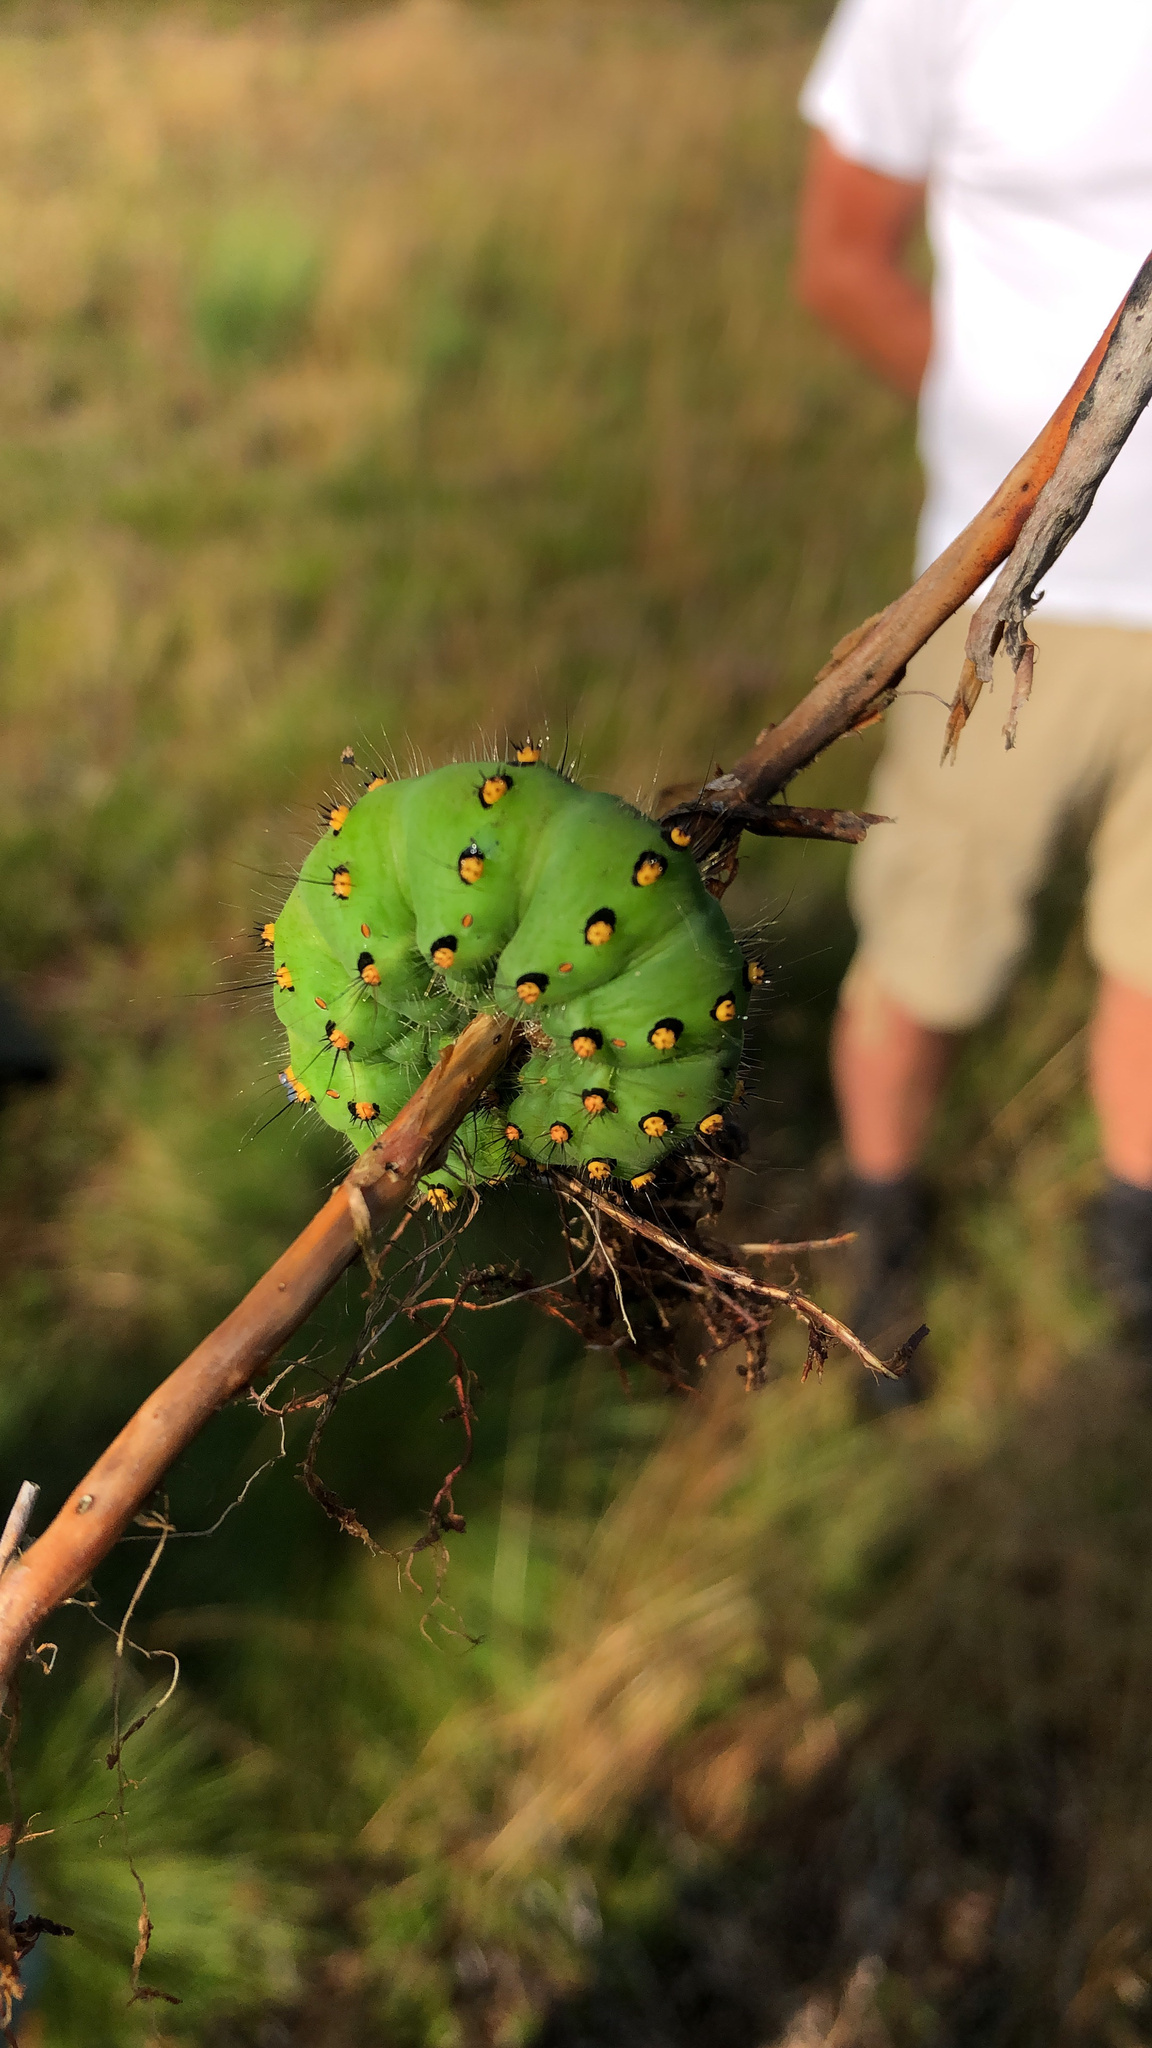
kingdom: Animalia
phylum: Arthropoda
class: Insecta
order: Lepidoptera
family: Saturniidae
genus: Saturnia
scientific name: Saturnia pavonia
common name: Emperor moth
